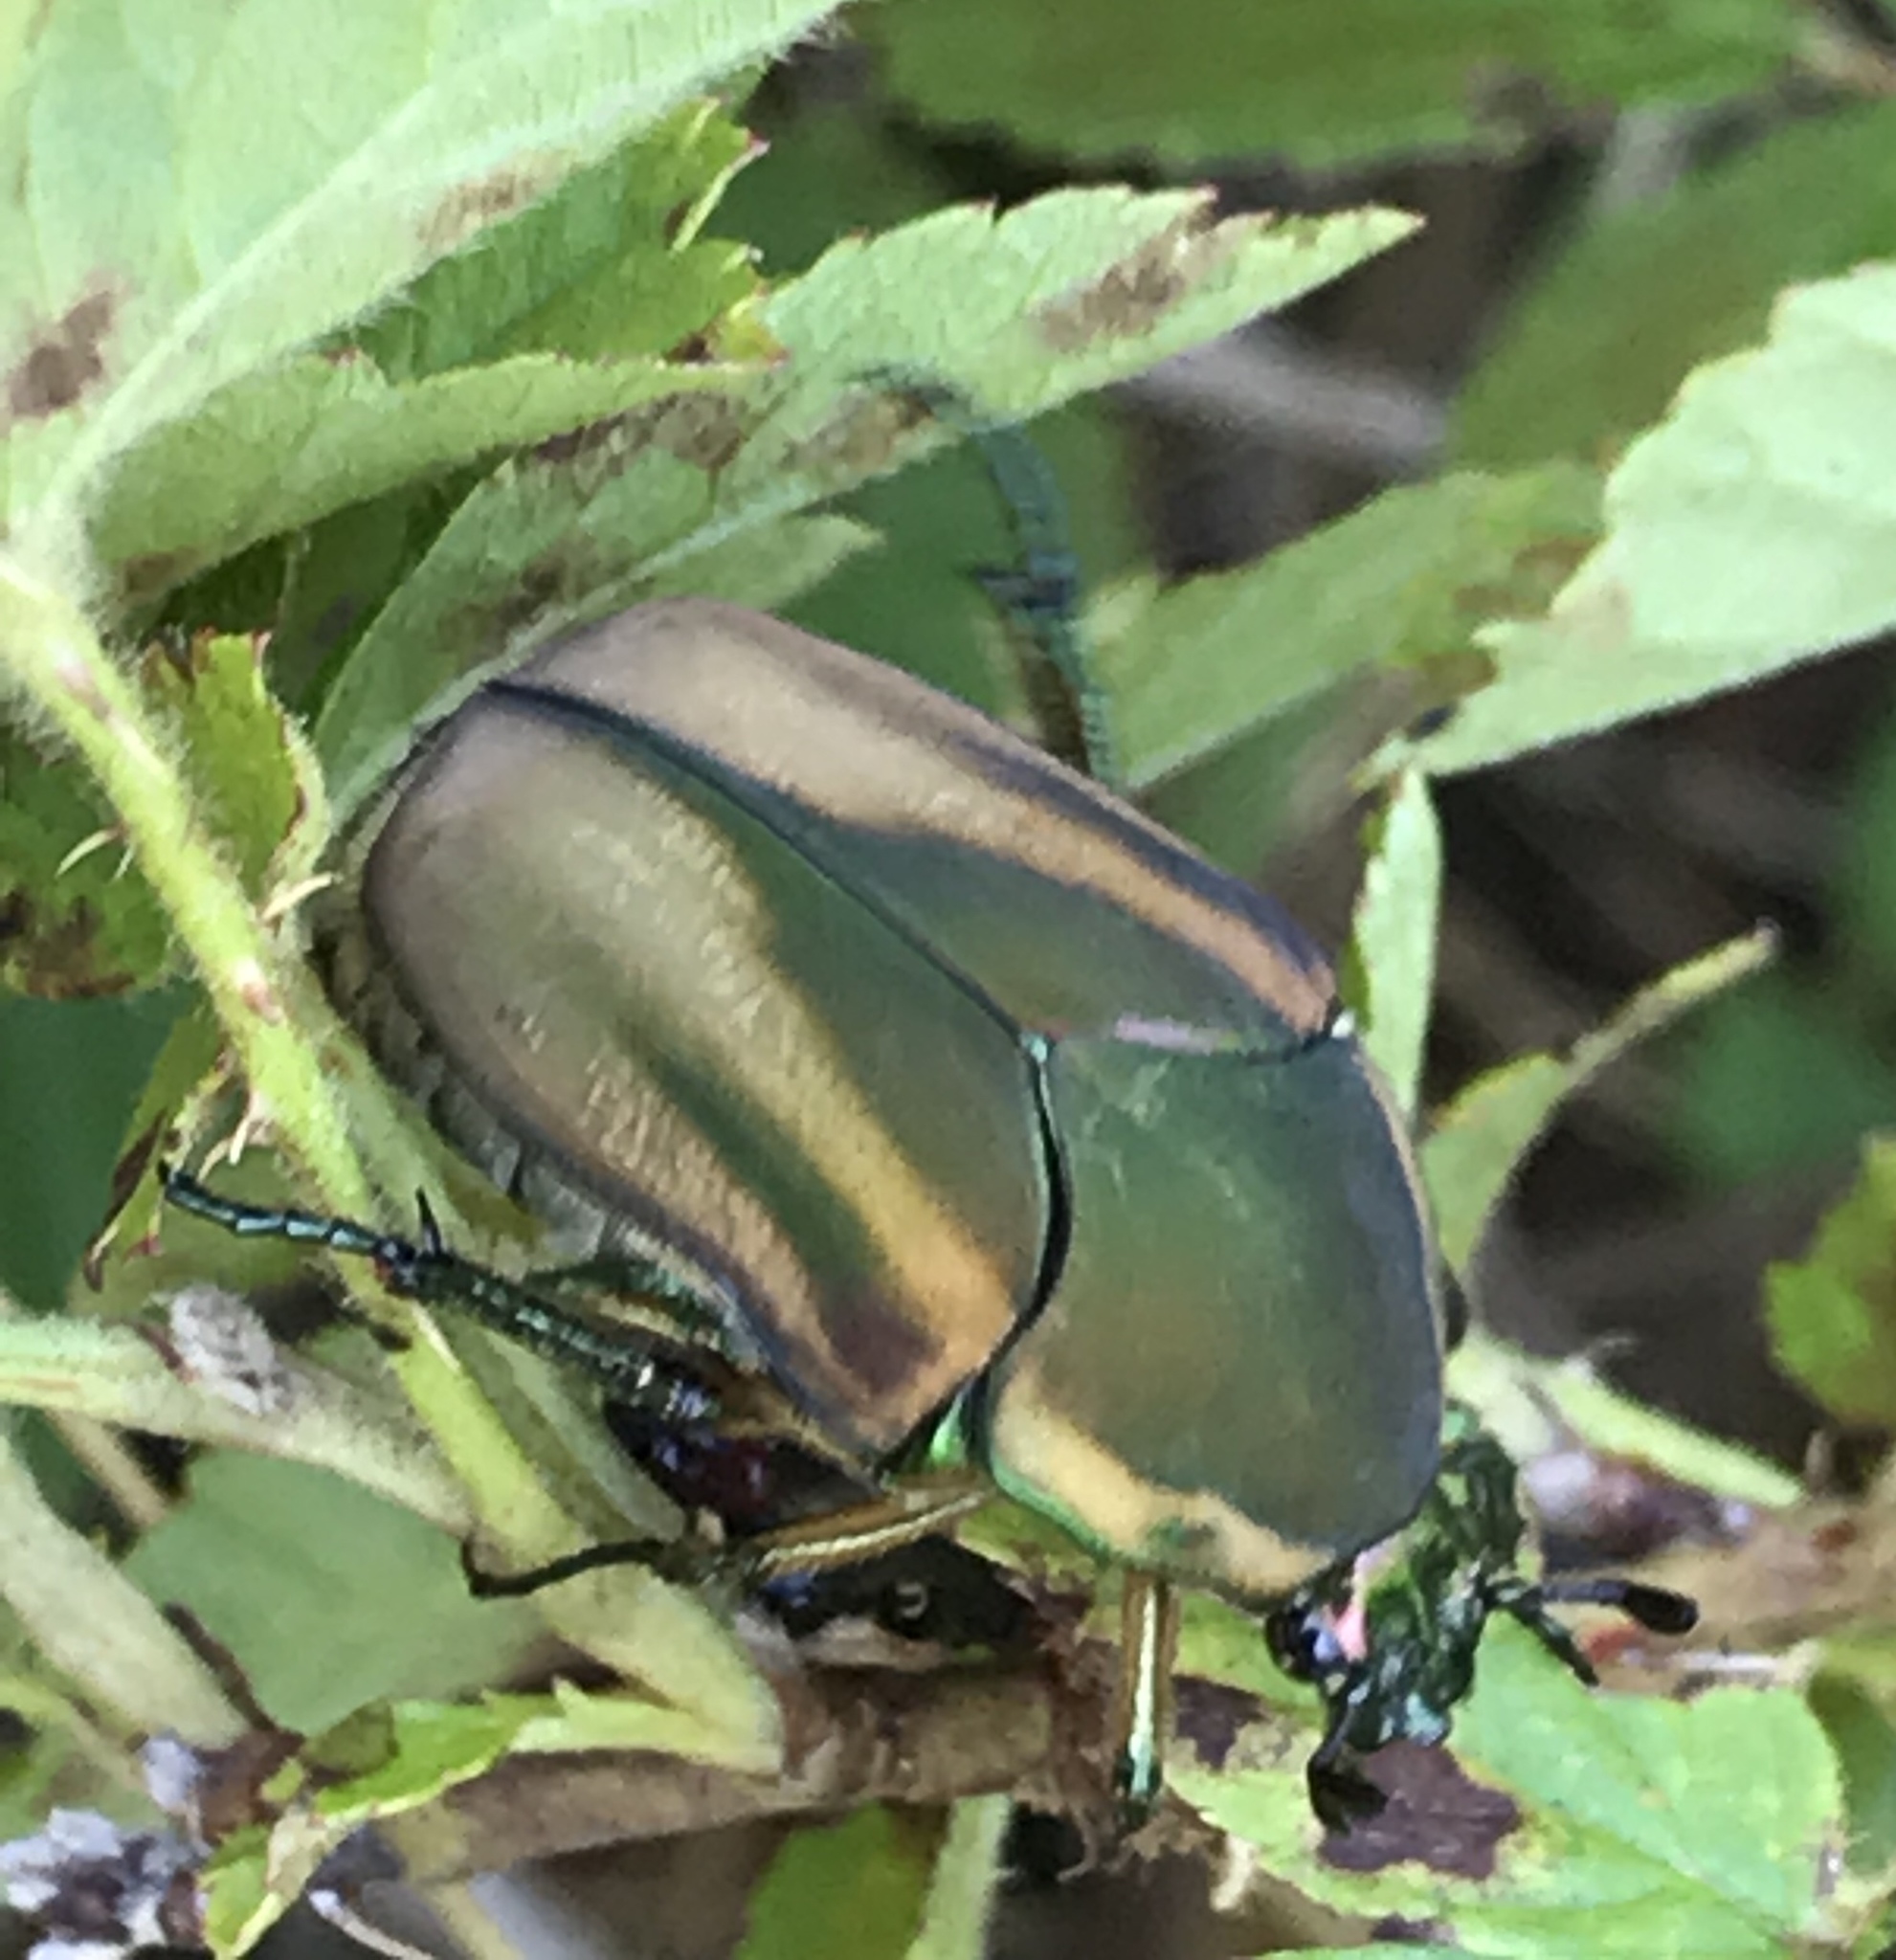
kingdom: Animalia
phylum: Arthropoda
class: Insecta
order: Coleoptera
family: Scarabaeidae
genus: Cotinis
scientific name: Cotinis nitida
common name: Common green june beetle
